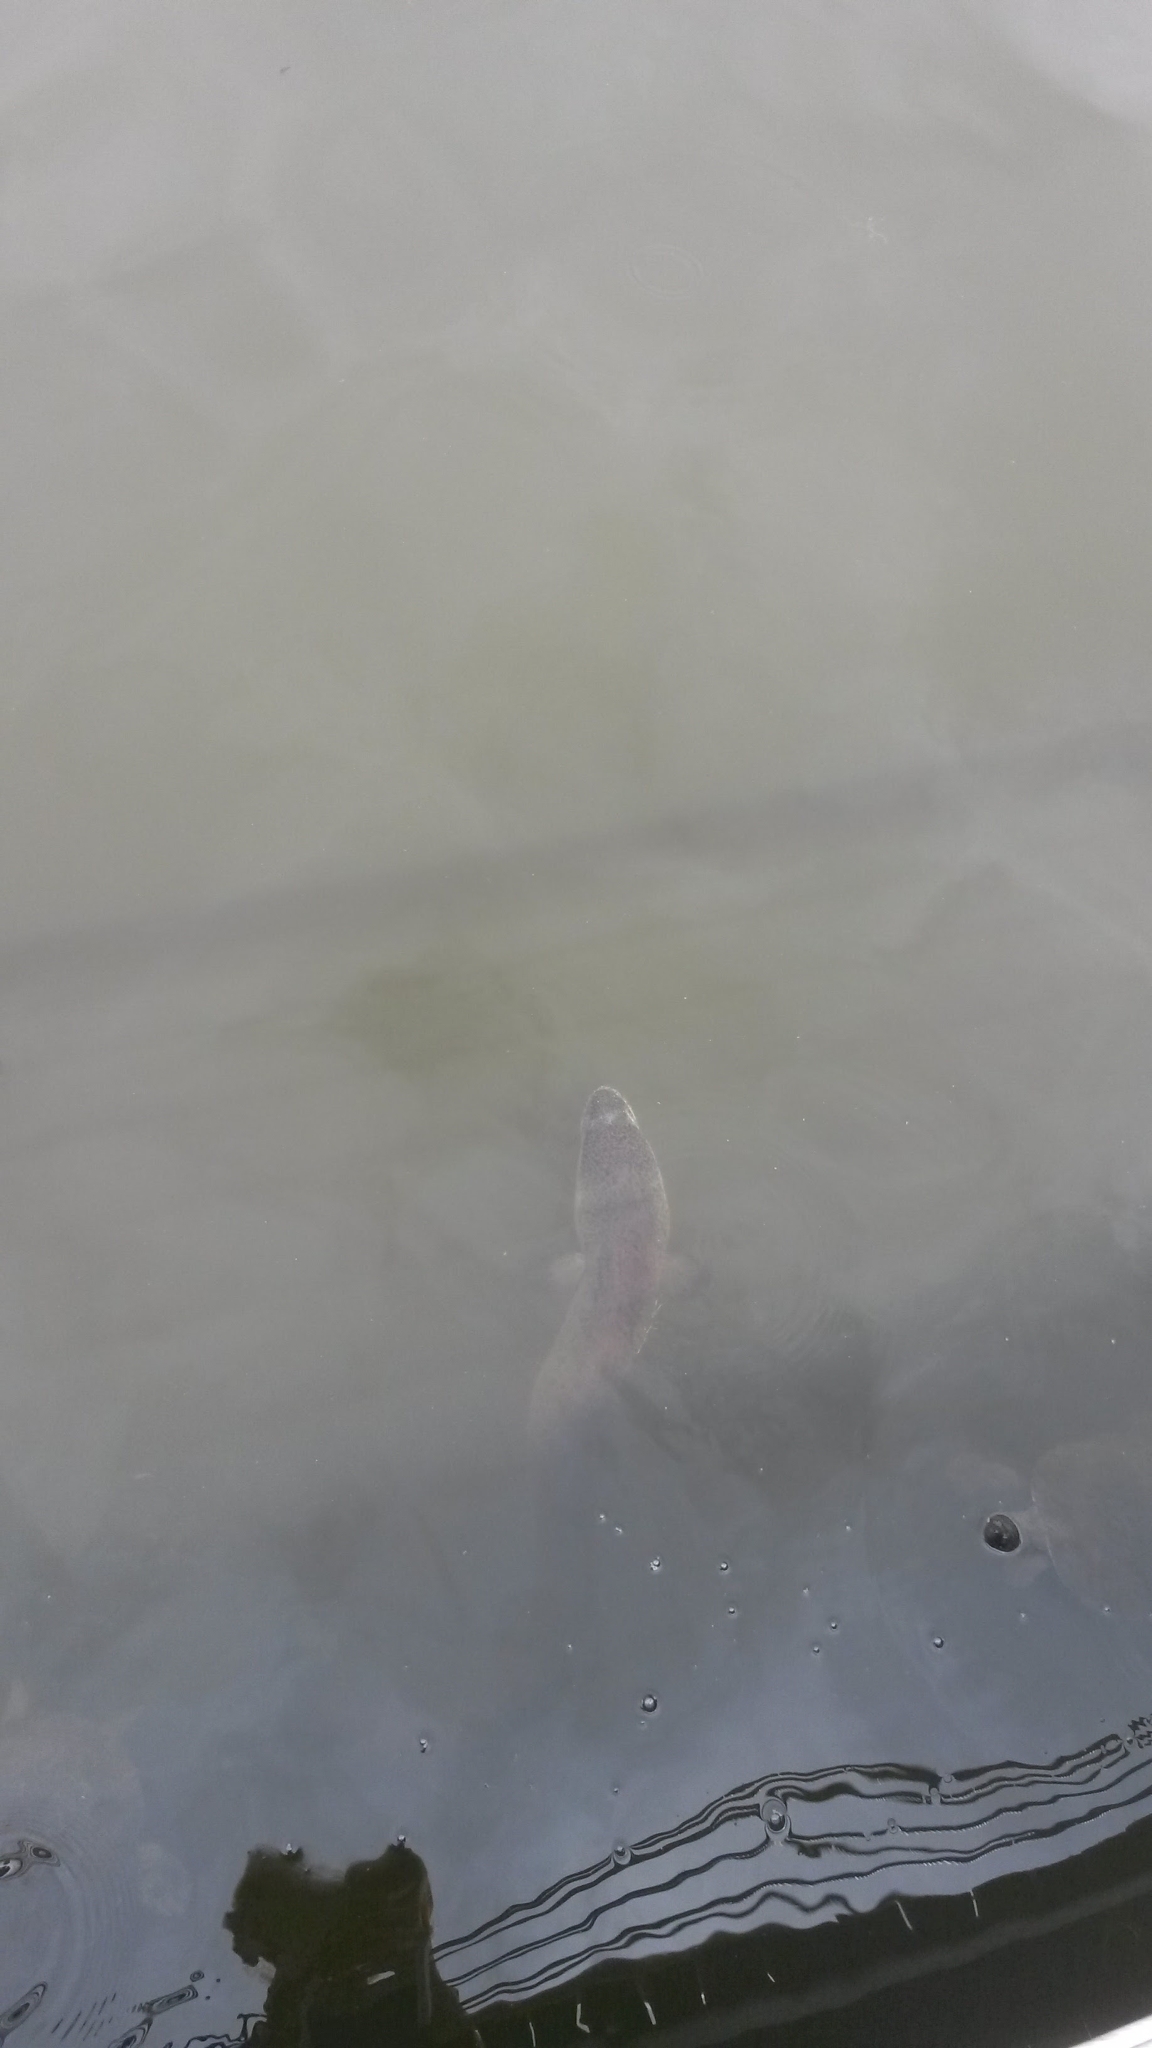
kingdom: Animalia
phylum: Chordata
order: Anguilliformes
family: Anguillidae
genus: Anguilla
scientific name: Anguilla reinhardtii
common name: Longfin eel
